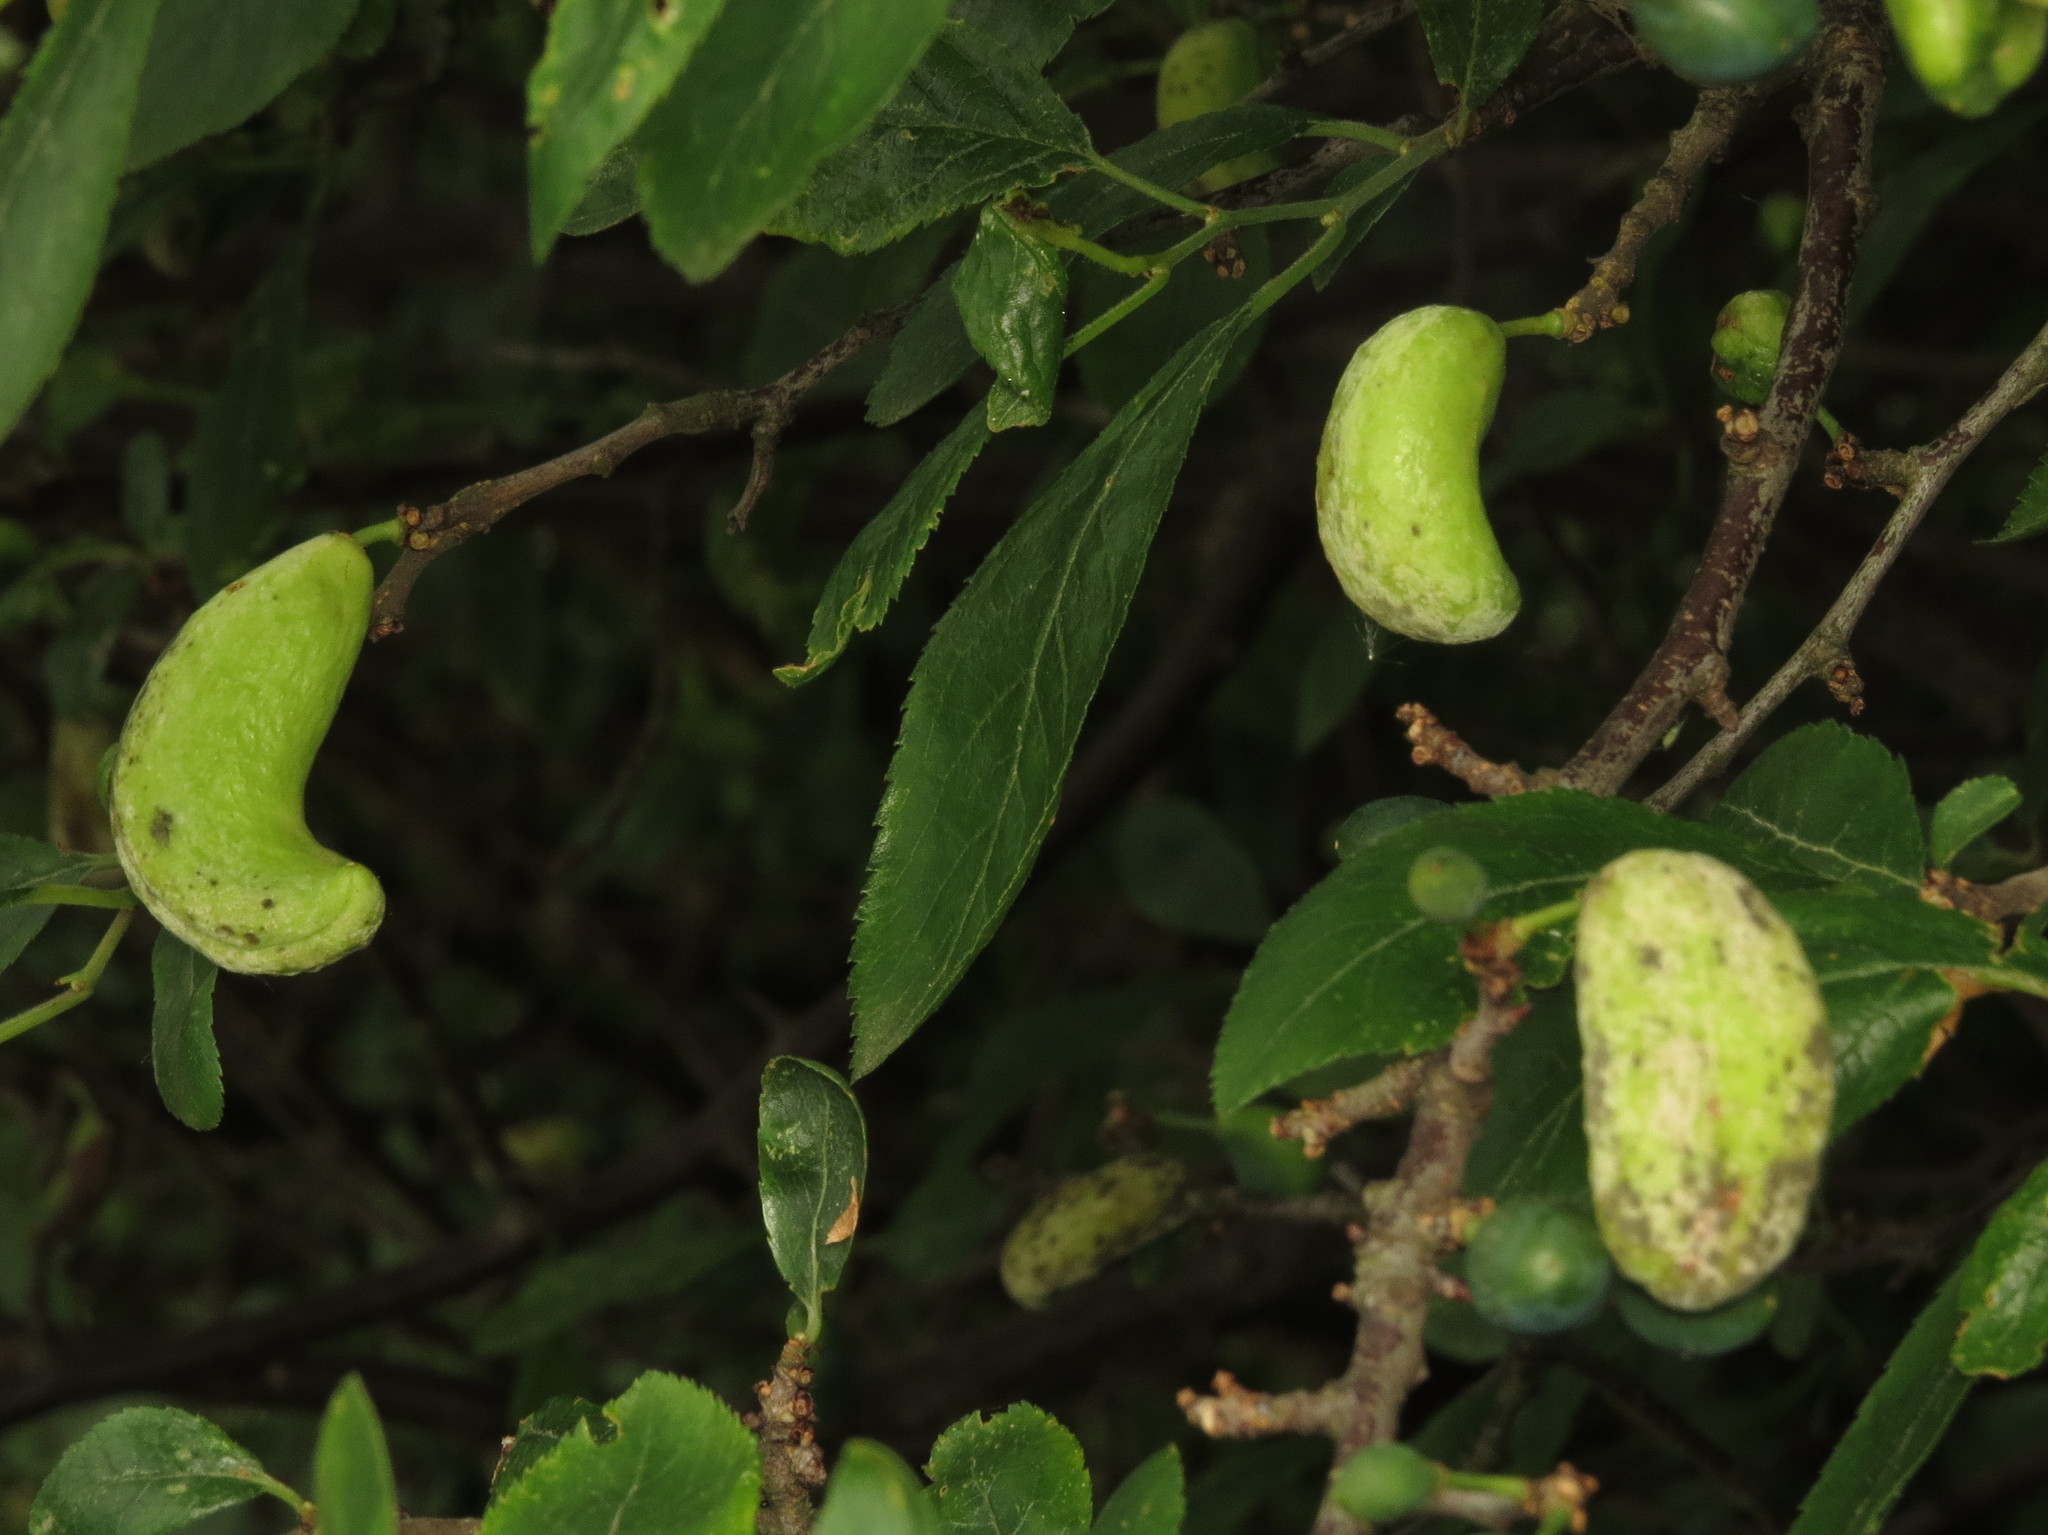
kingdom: Fungi
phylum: Ascomycota
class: Taphrinomycetes
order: Taphrinales
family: Taphrinaceae
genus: Taphrina
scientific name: Taphrina pruni
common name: Pocket plum
